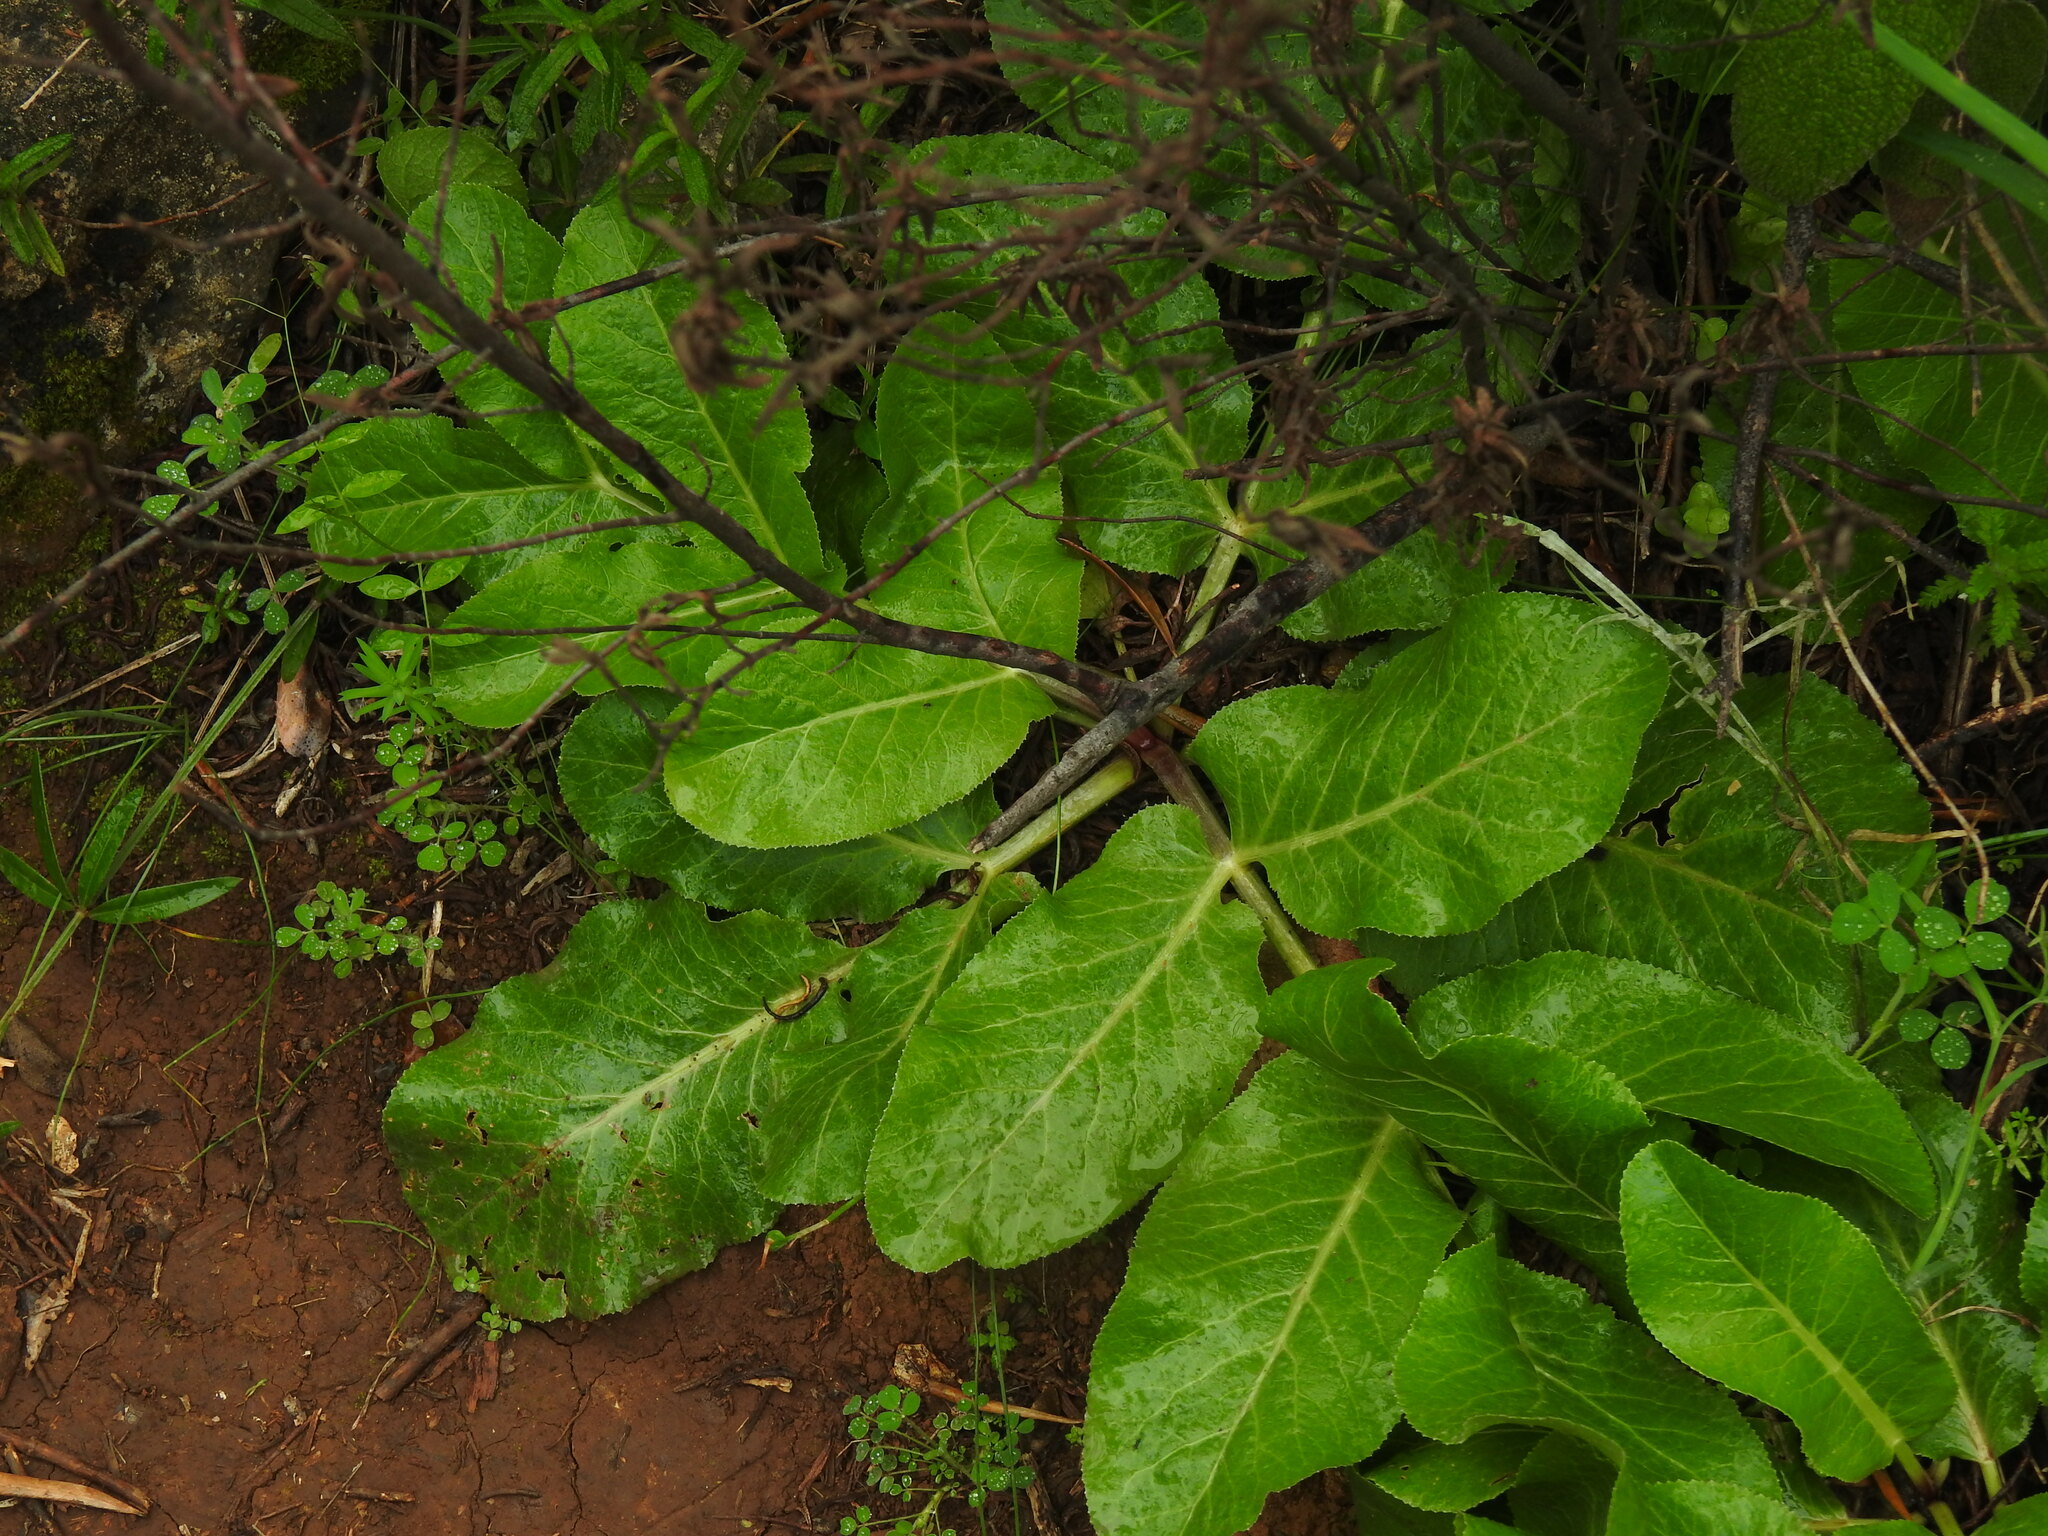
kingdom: Plantae
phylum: Tracheophyta
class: Magnoliopsida
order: Apiales
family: Apiaceae
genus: Magydaris
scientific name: Magydaris panacifolia
